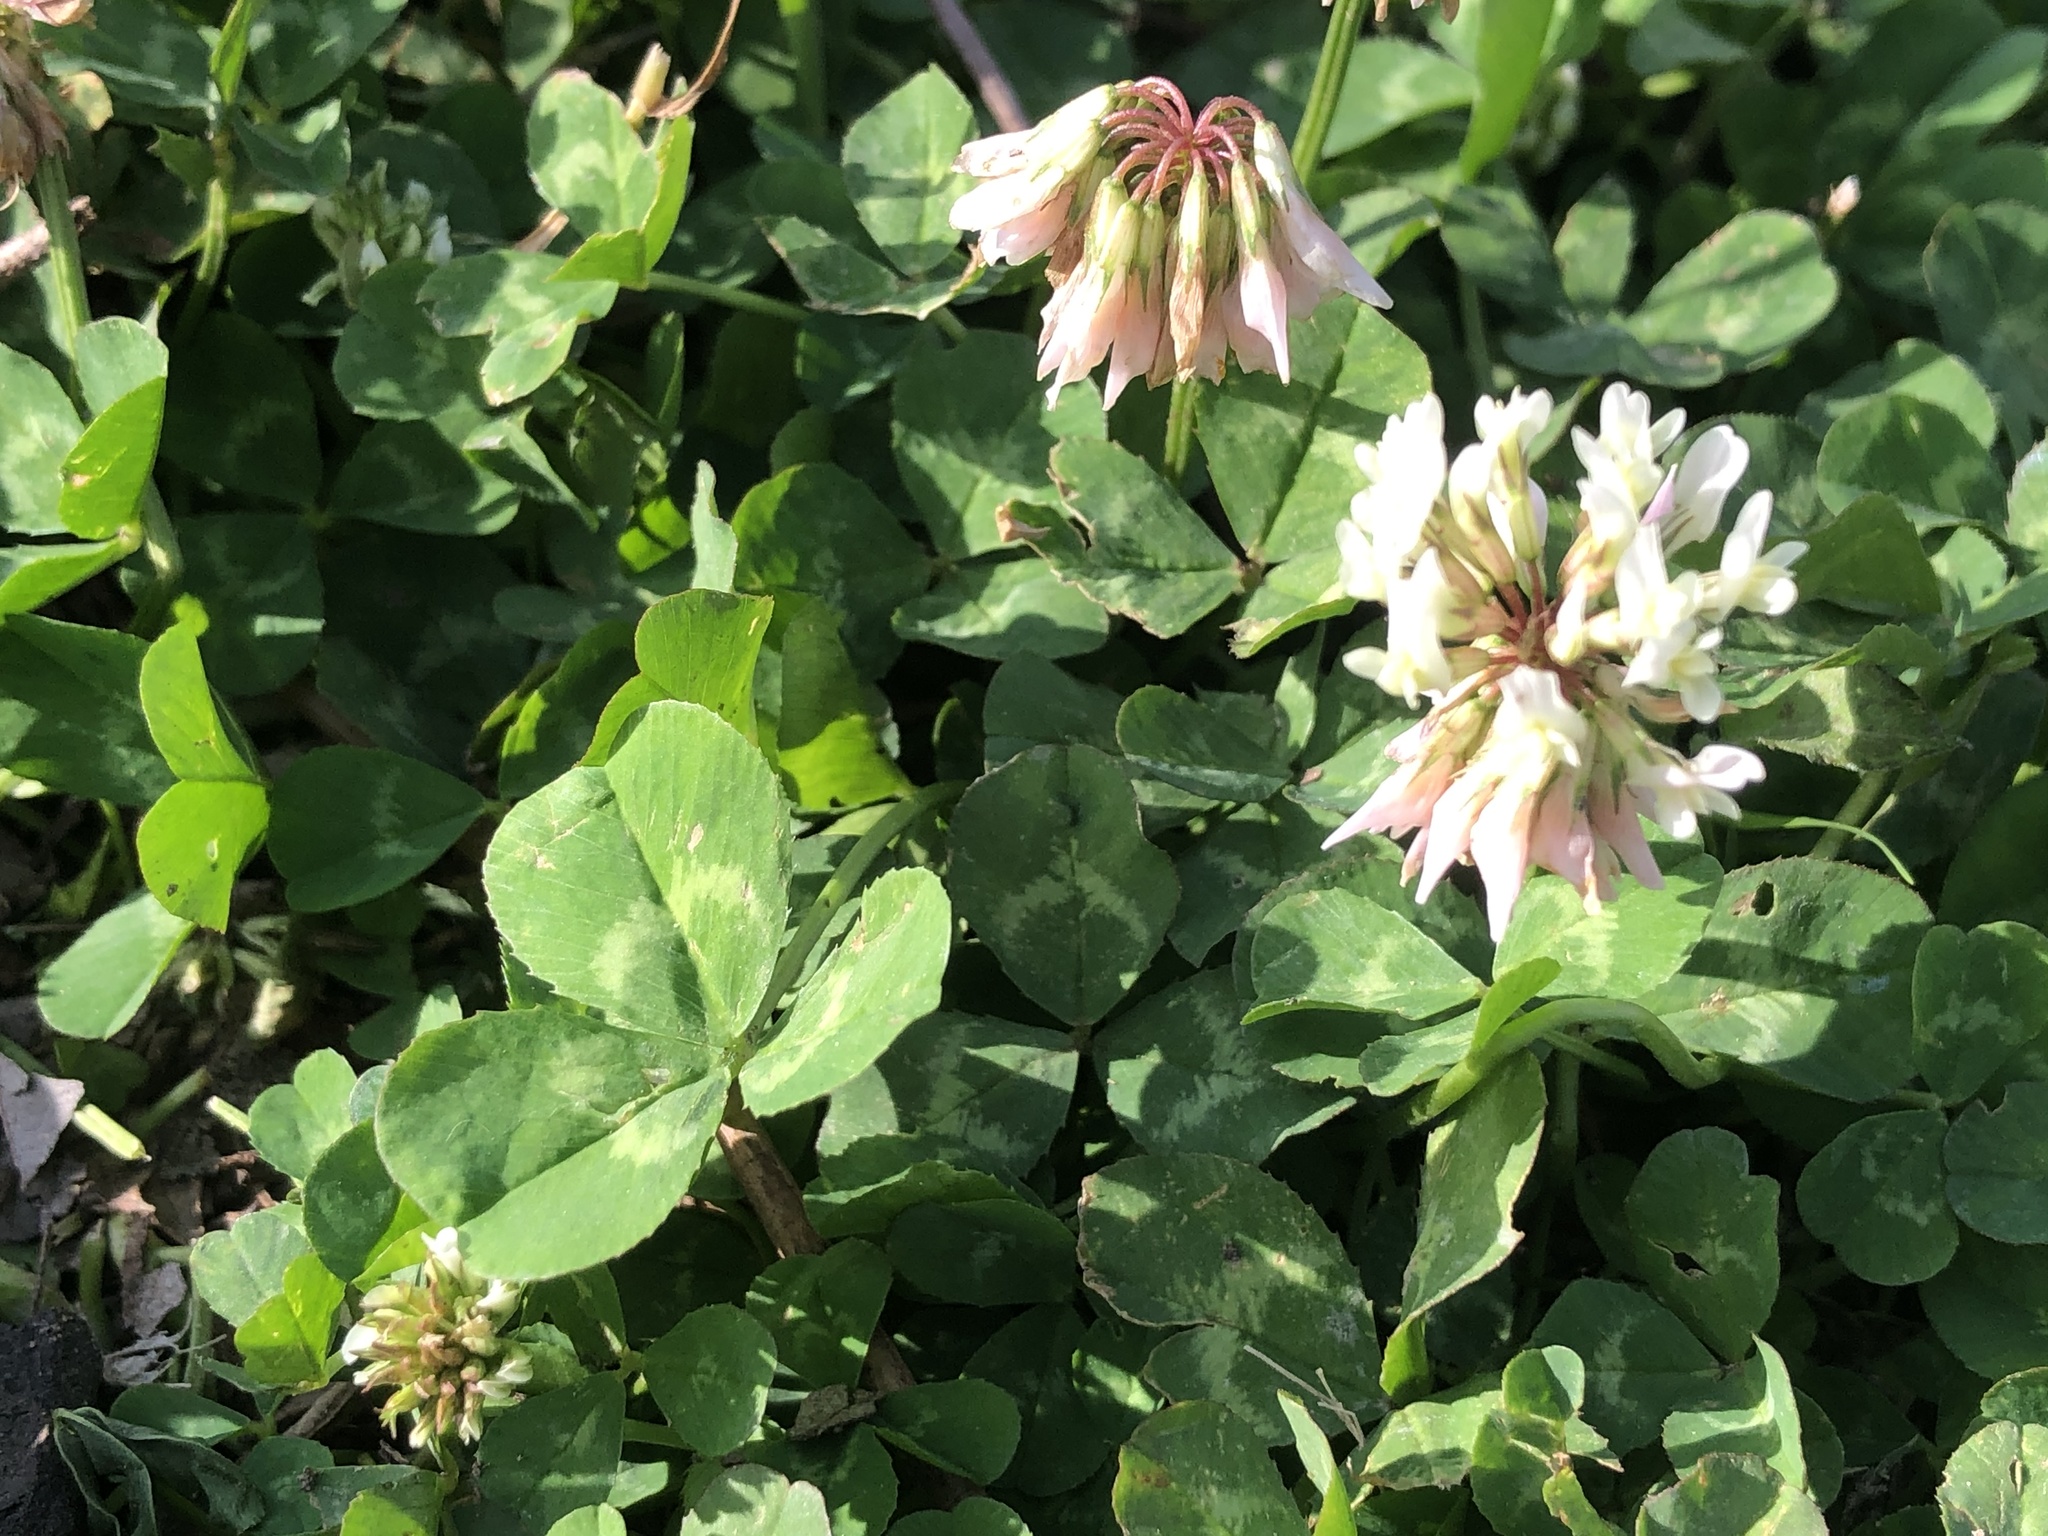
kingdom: Plantae
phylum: Tracheophyta
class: Magnoliopsida
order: Fabales
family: Fabaceae
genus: Trifolium
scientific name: Trifolium repens
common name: White clover
